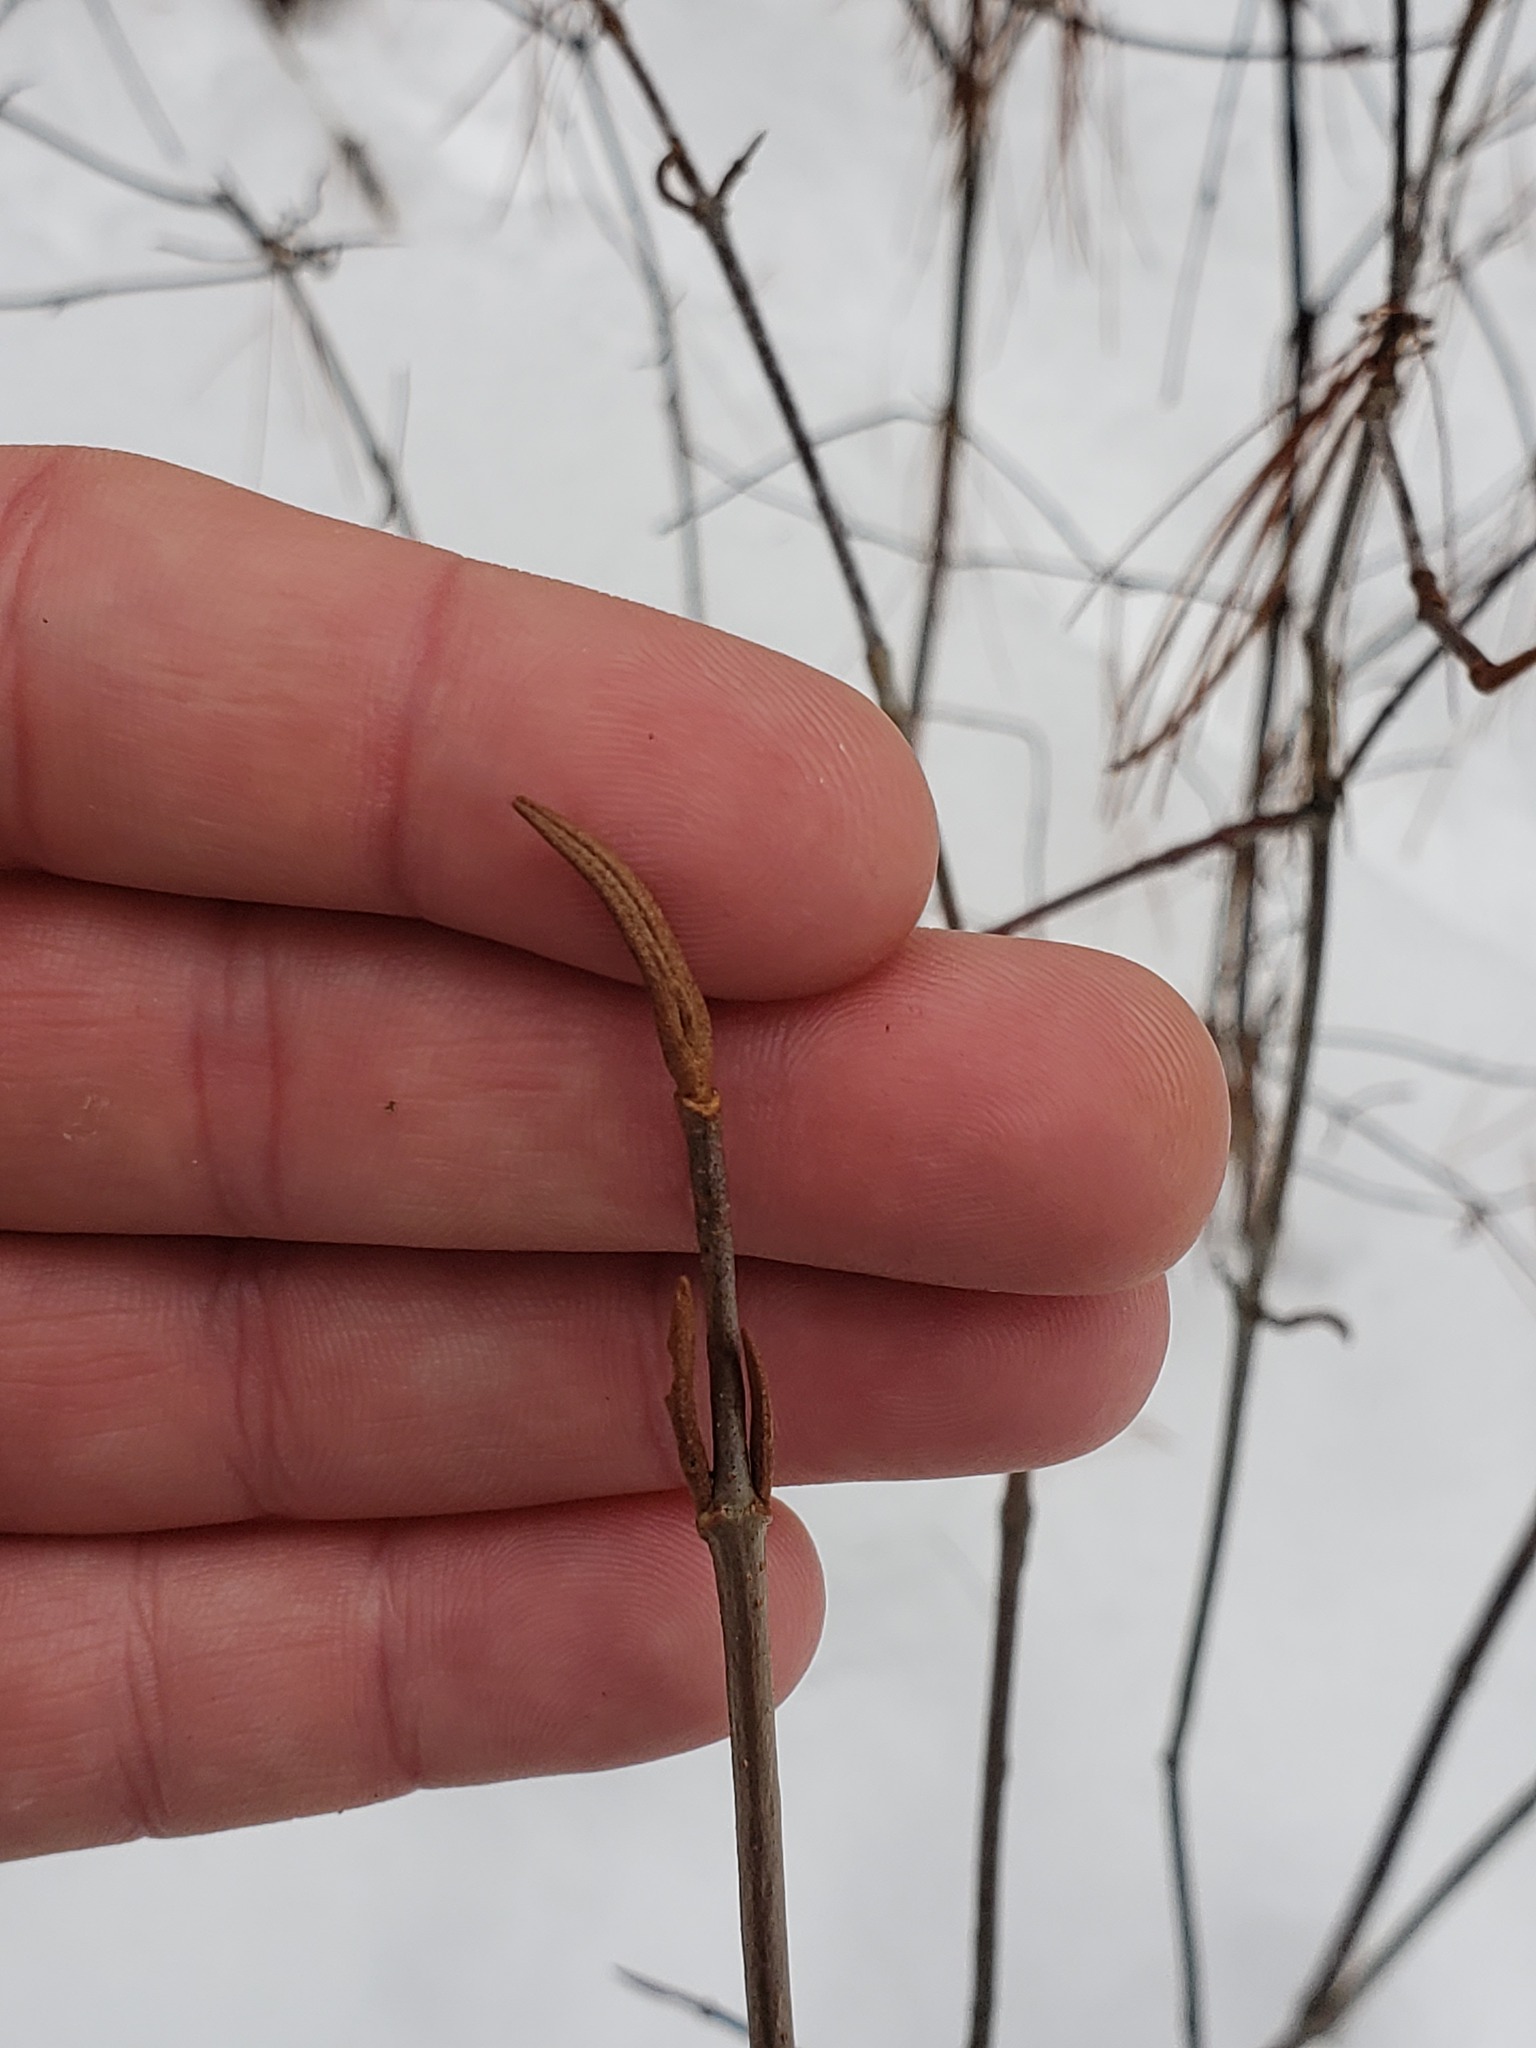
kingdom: Plantae
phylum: Tracheophyta
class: Magnoliopsida
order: Dipsacales
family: Viburnaceae
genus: Viburnum
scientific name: Viburnum cassinoides
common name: Swamp haw
